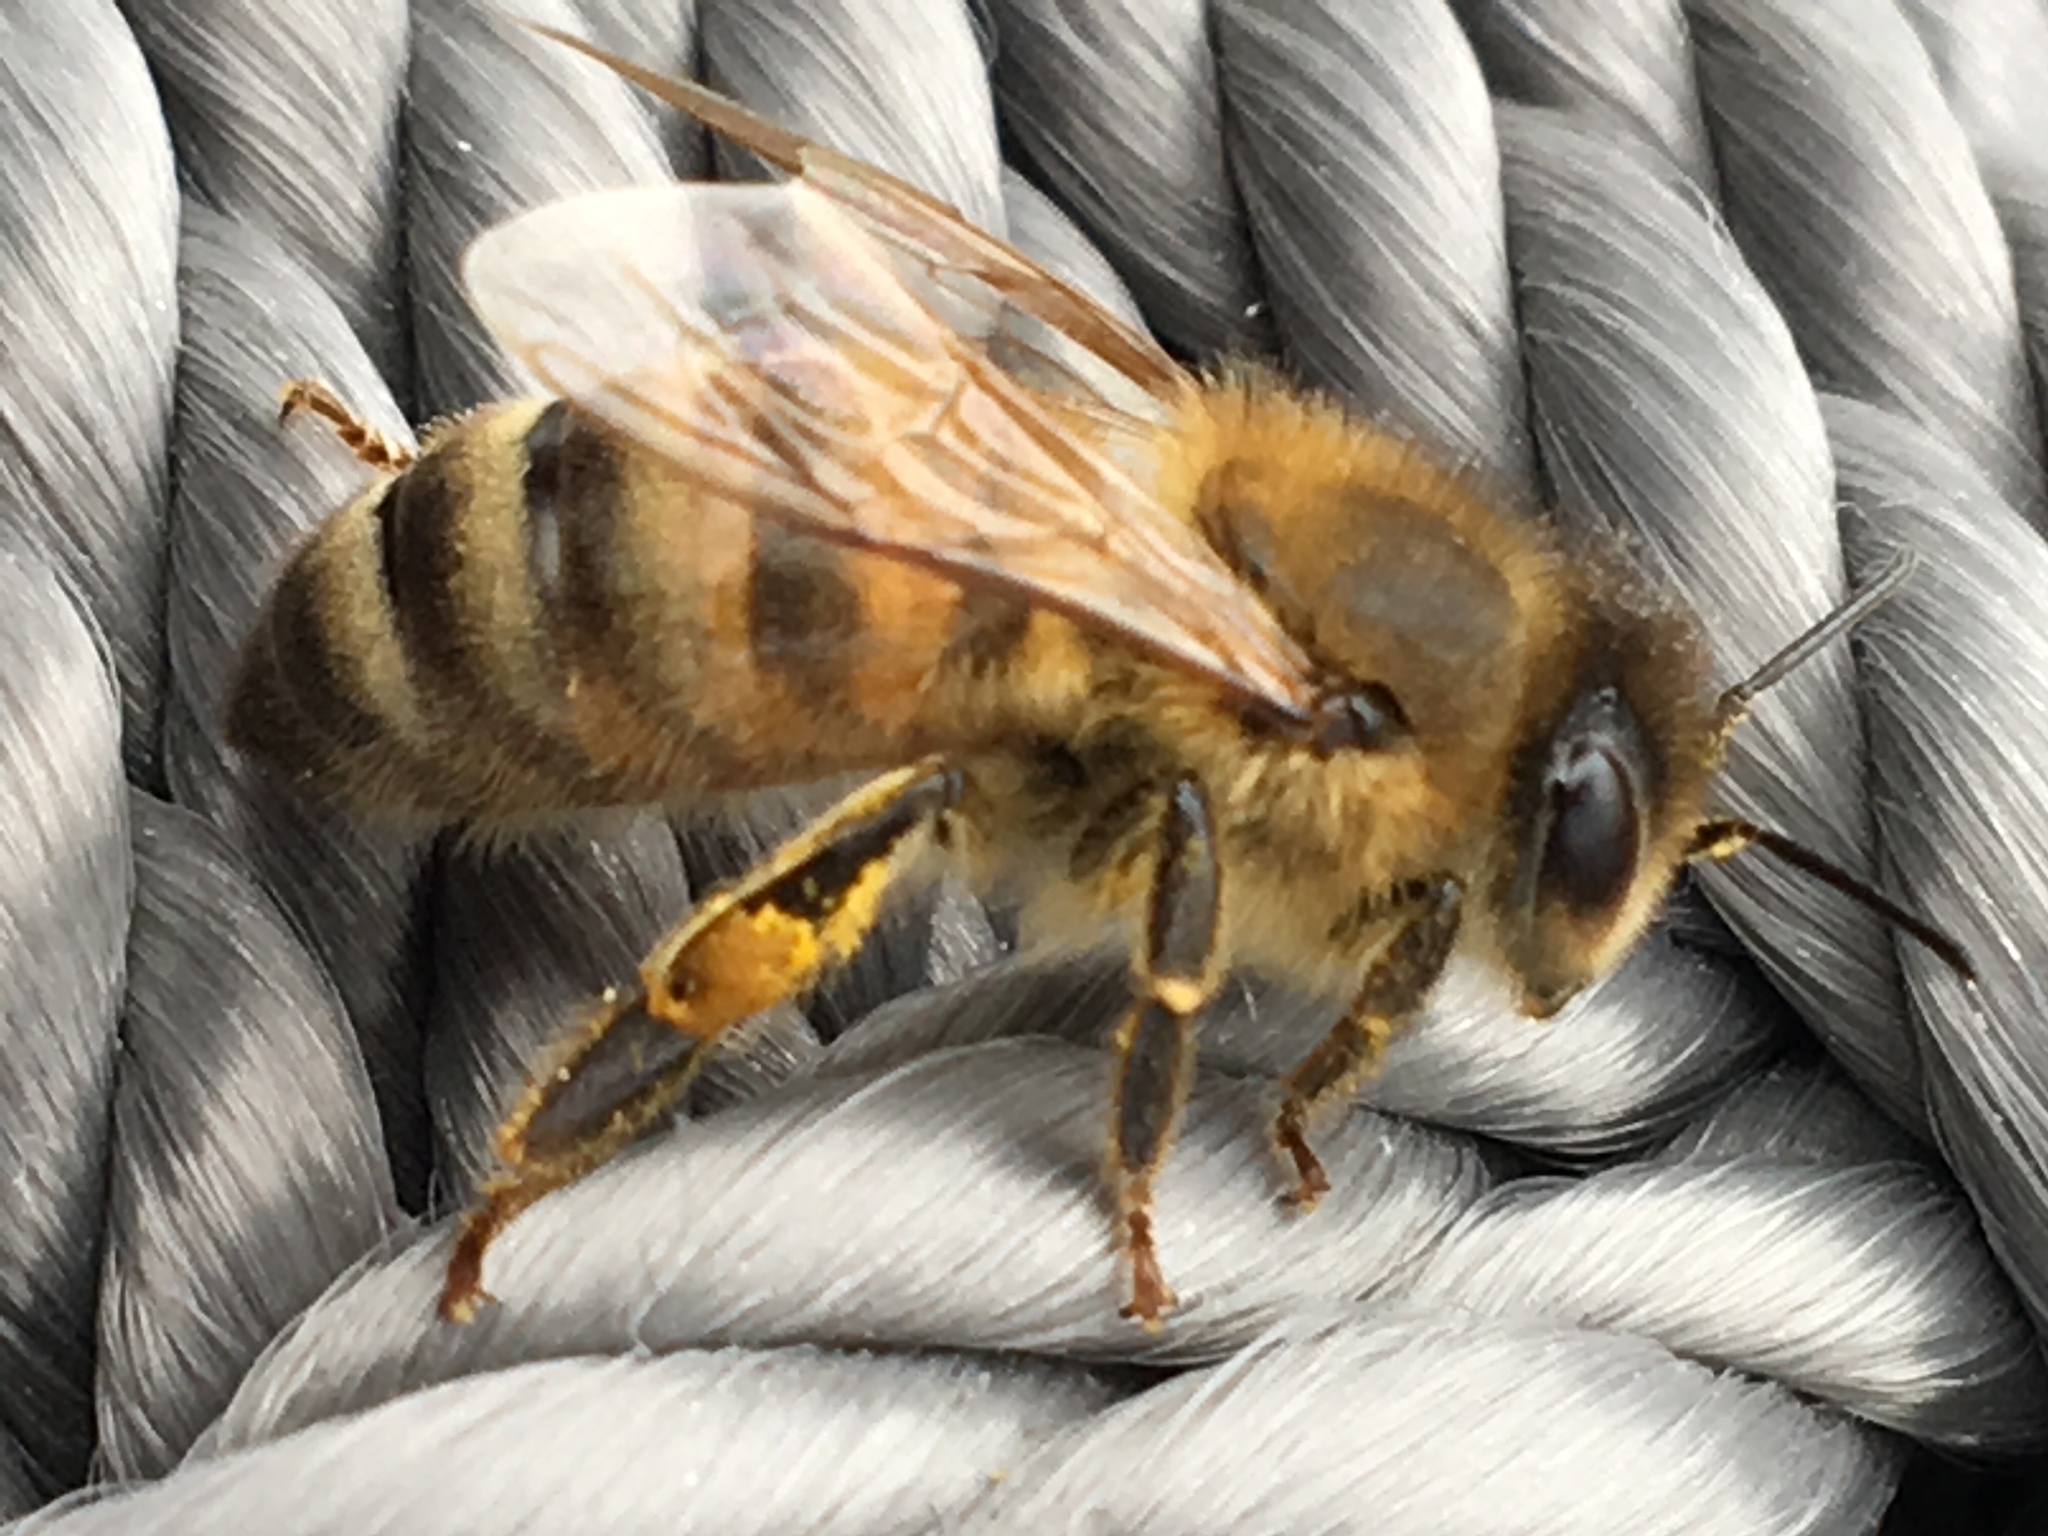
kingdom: Animalia
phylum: Arthropoda
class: Insecta
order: Hymenoptera
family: Apidae
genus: Apis
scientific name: Apis mellifera
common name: Honey bee
